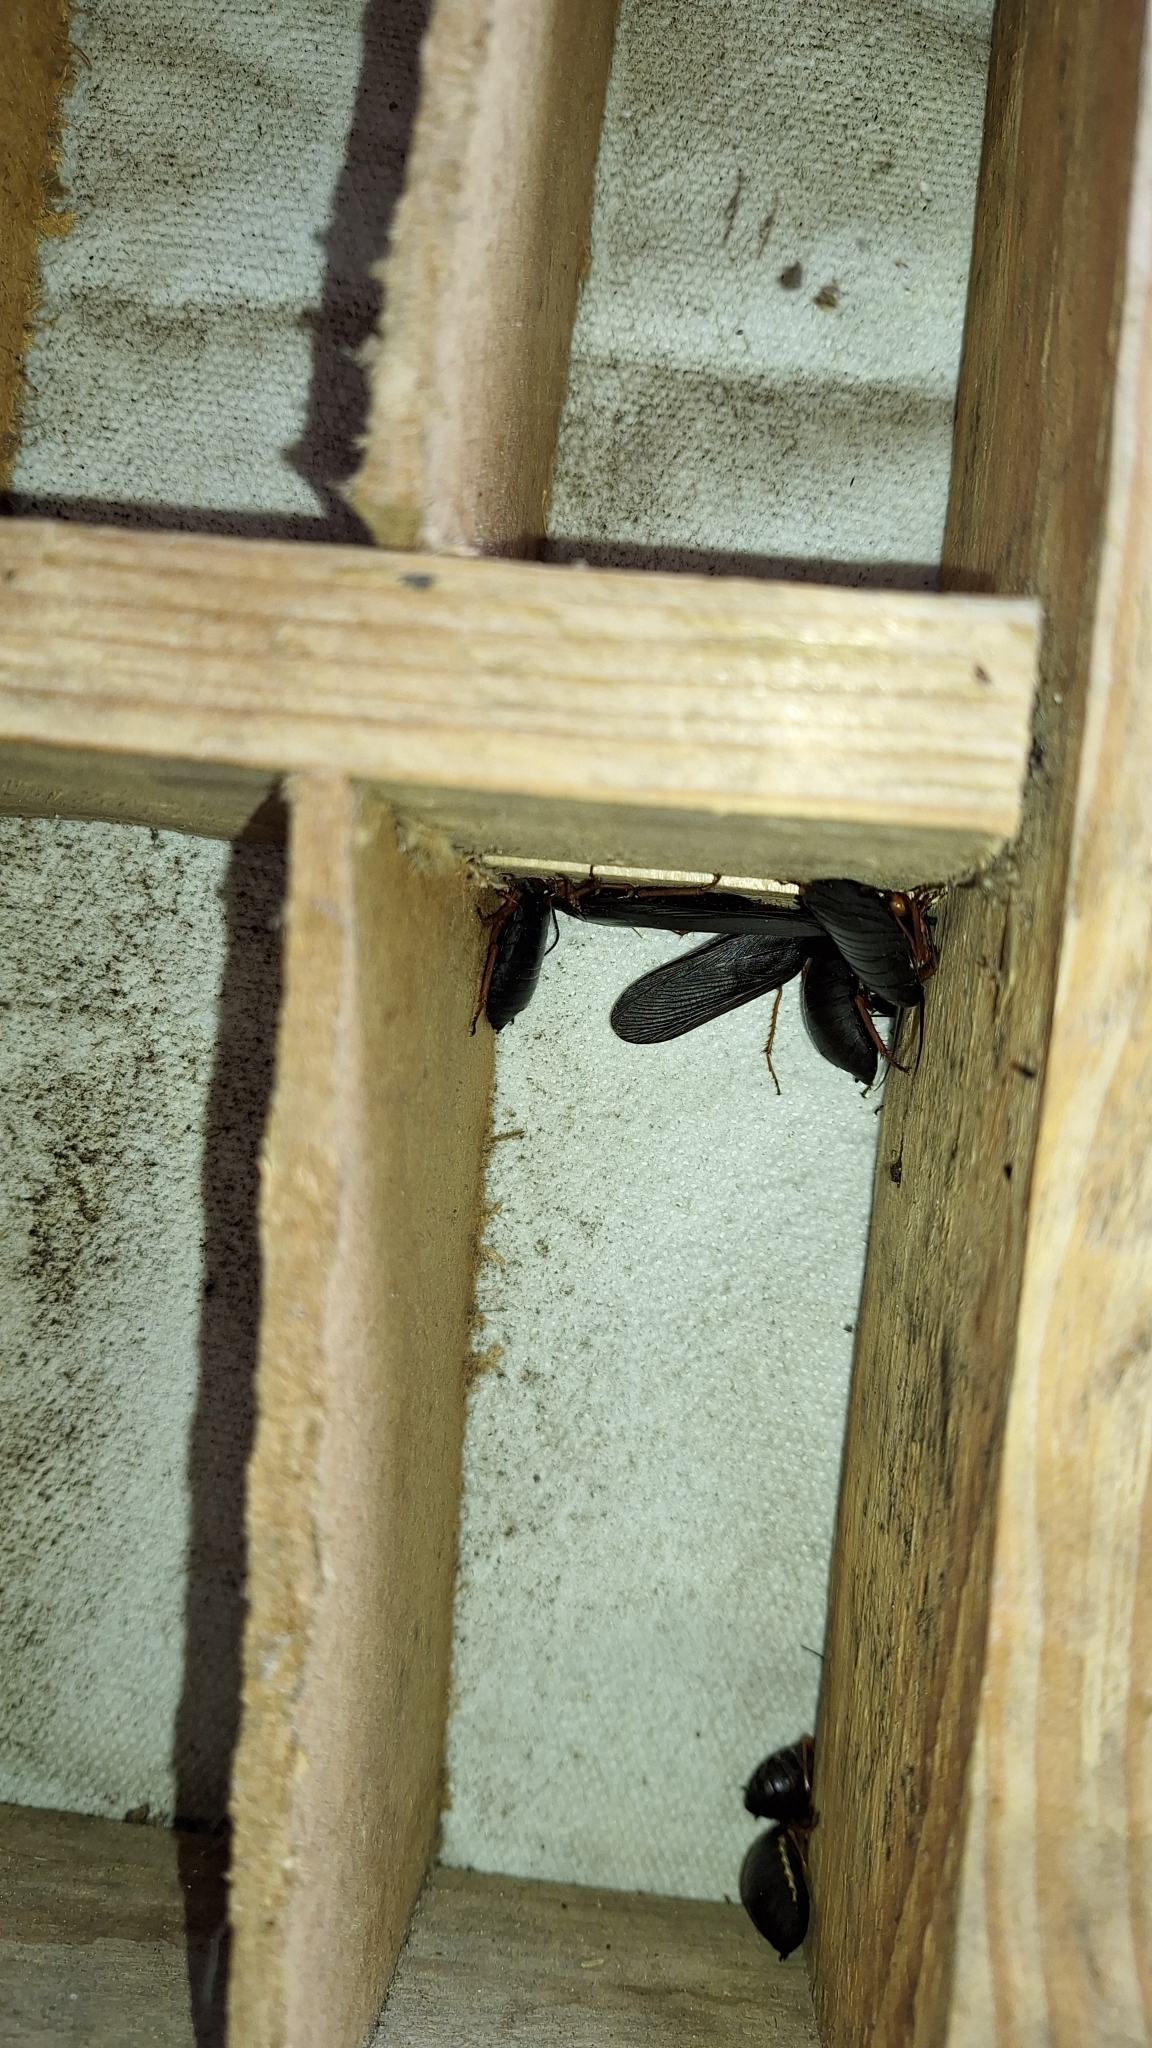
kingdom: Animalia
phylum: Arthropoda
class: Insecta
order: Blattodea
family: Blattidae
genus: Deropeltis
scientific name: Deropeltis erythrocephala
